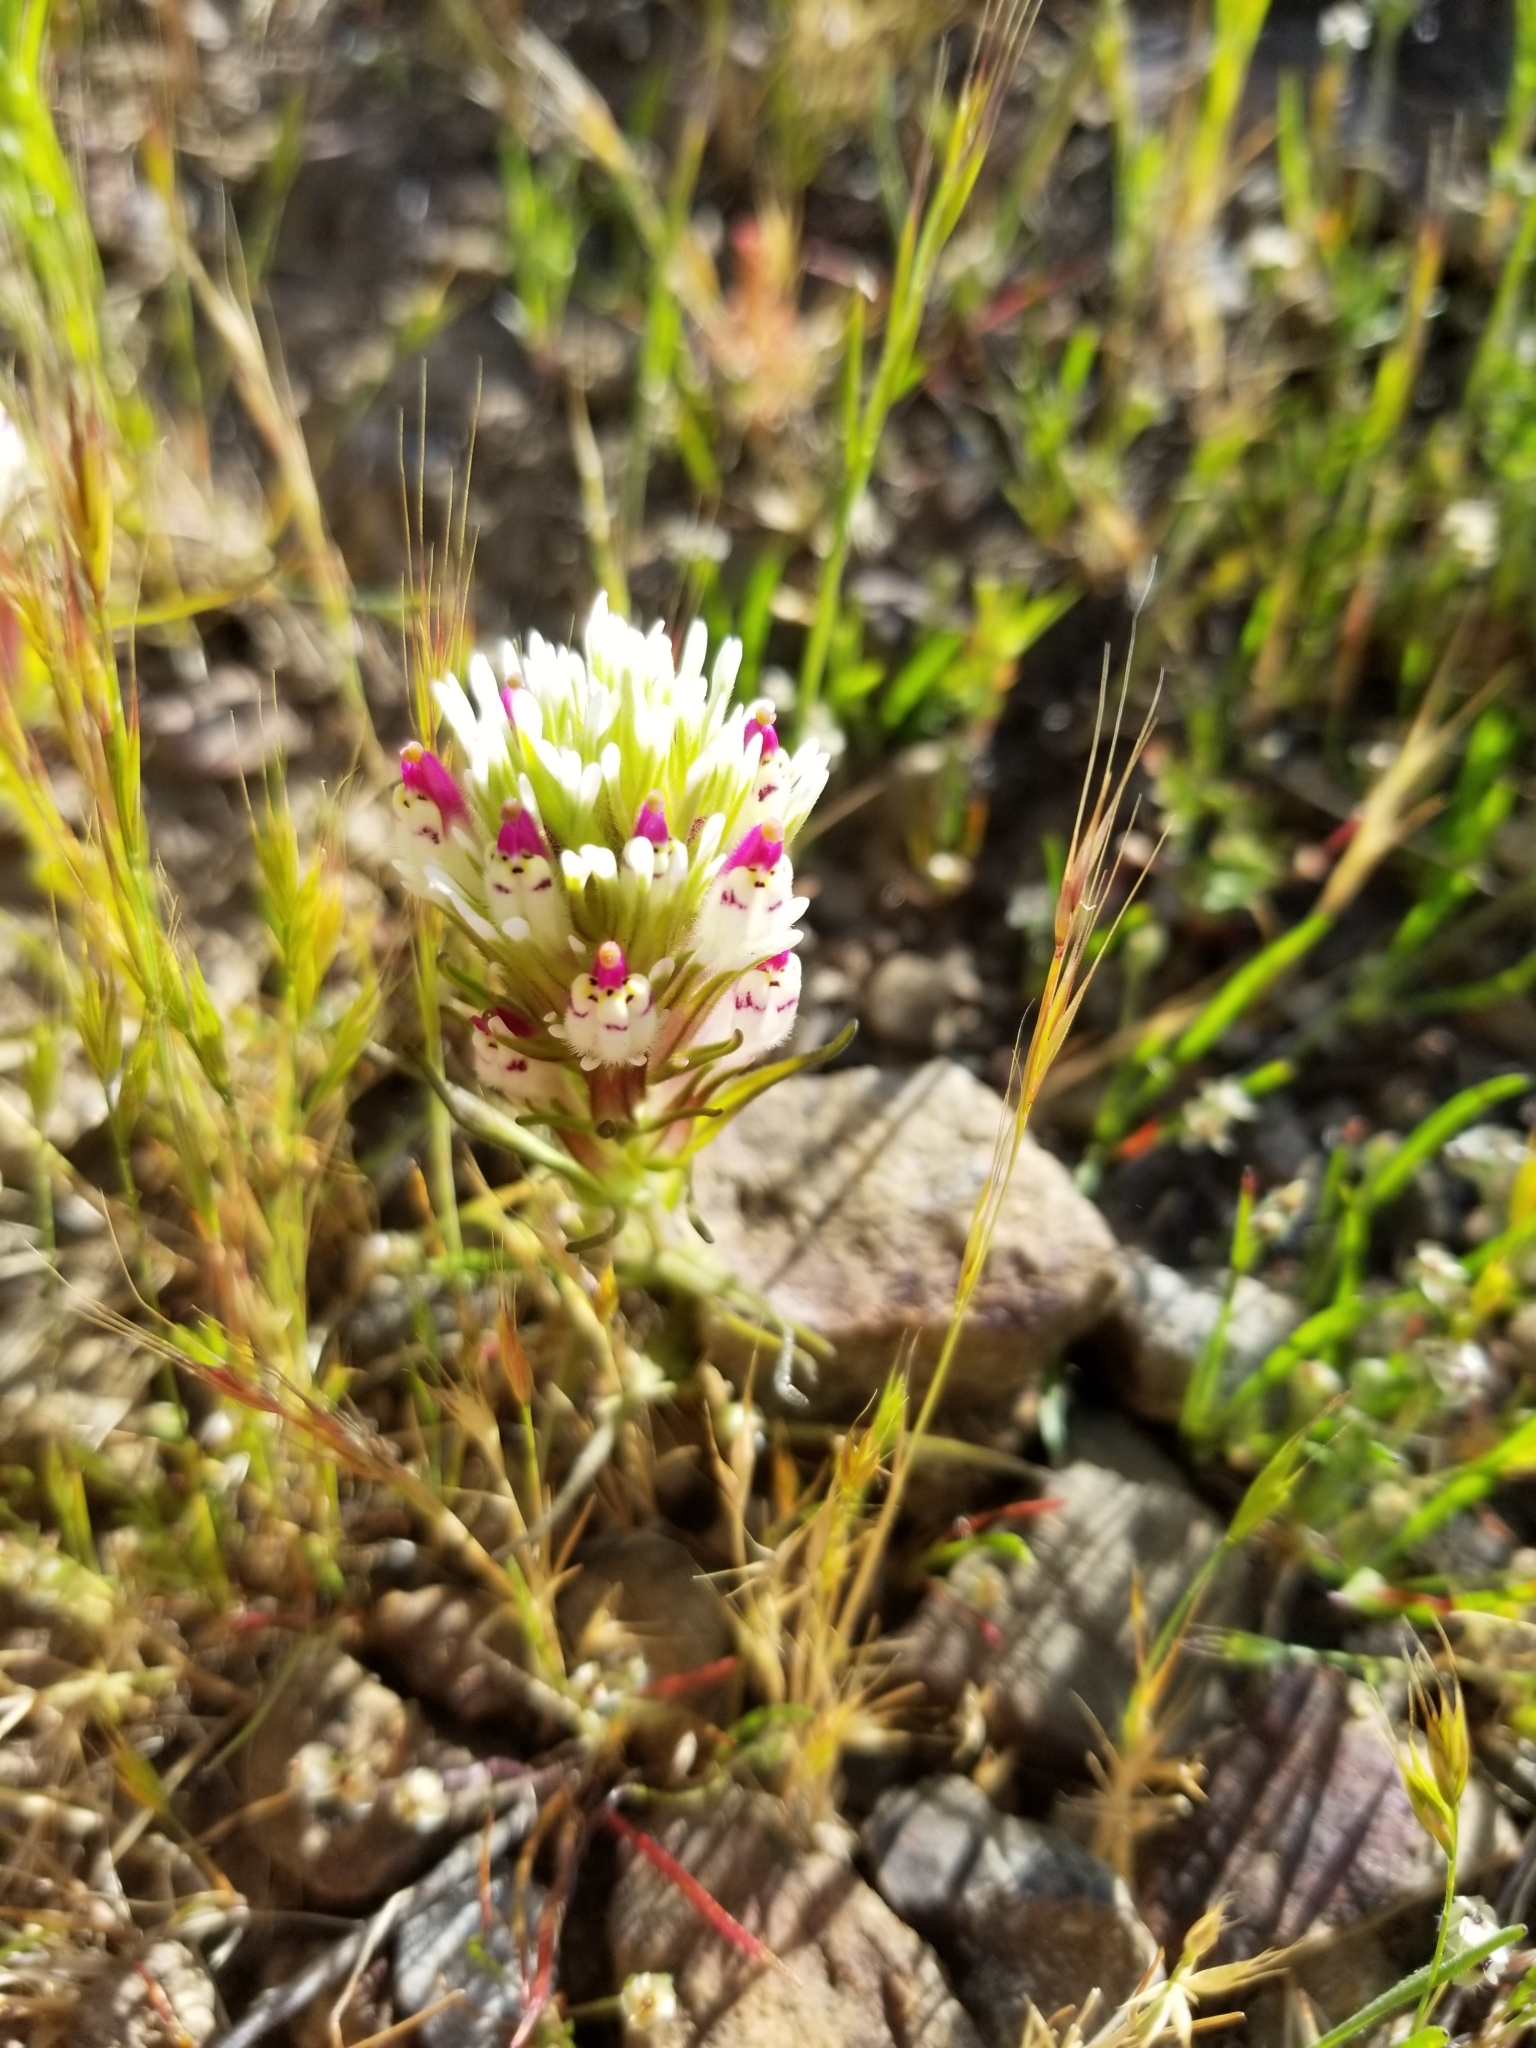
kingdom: Plantae
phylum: Tracheophyta
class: Magnoliopsida
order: Lamiales
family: Orobanchaceae
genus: Castilleja
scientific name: Castilleja densiflora
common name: Dense-flower indian paintbrush
